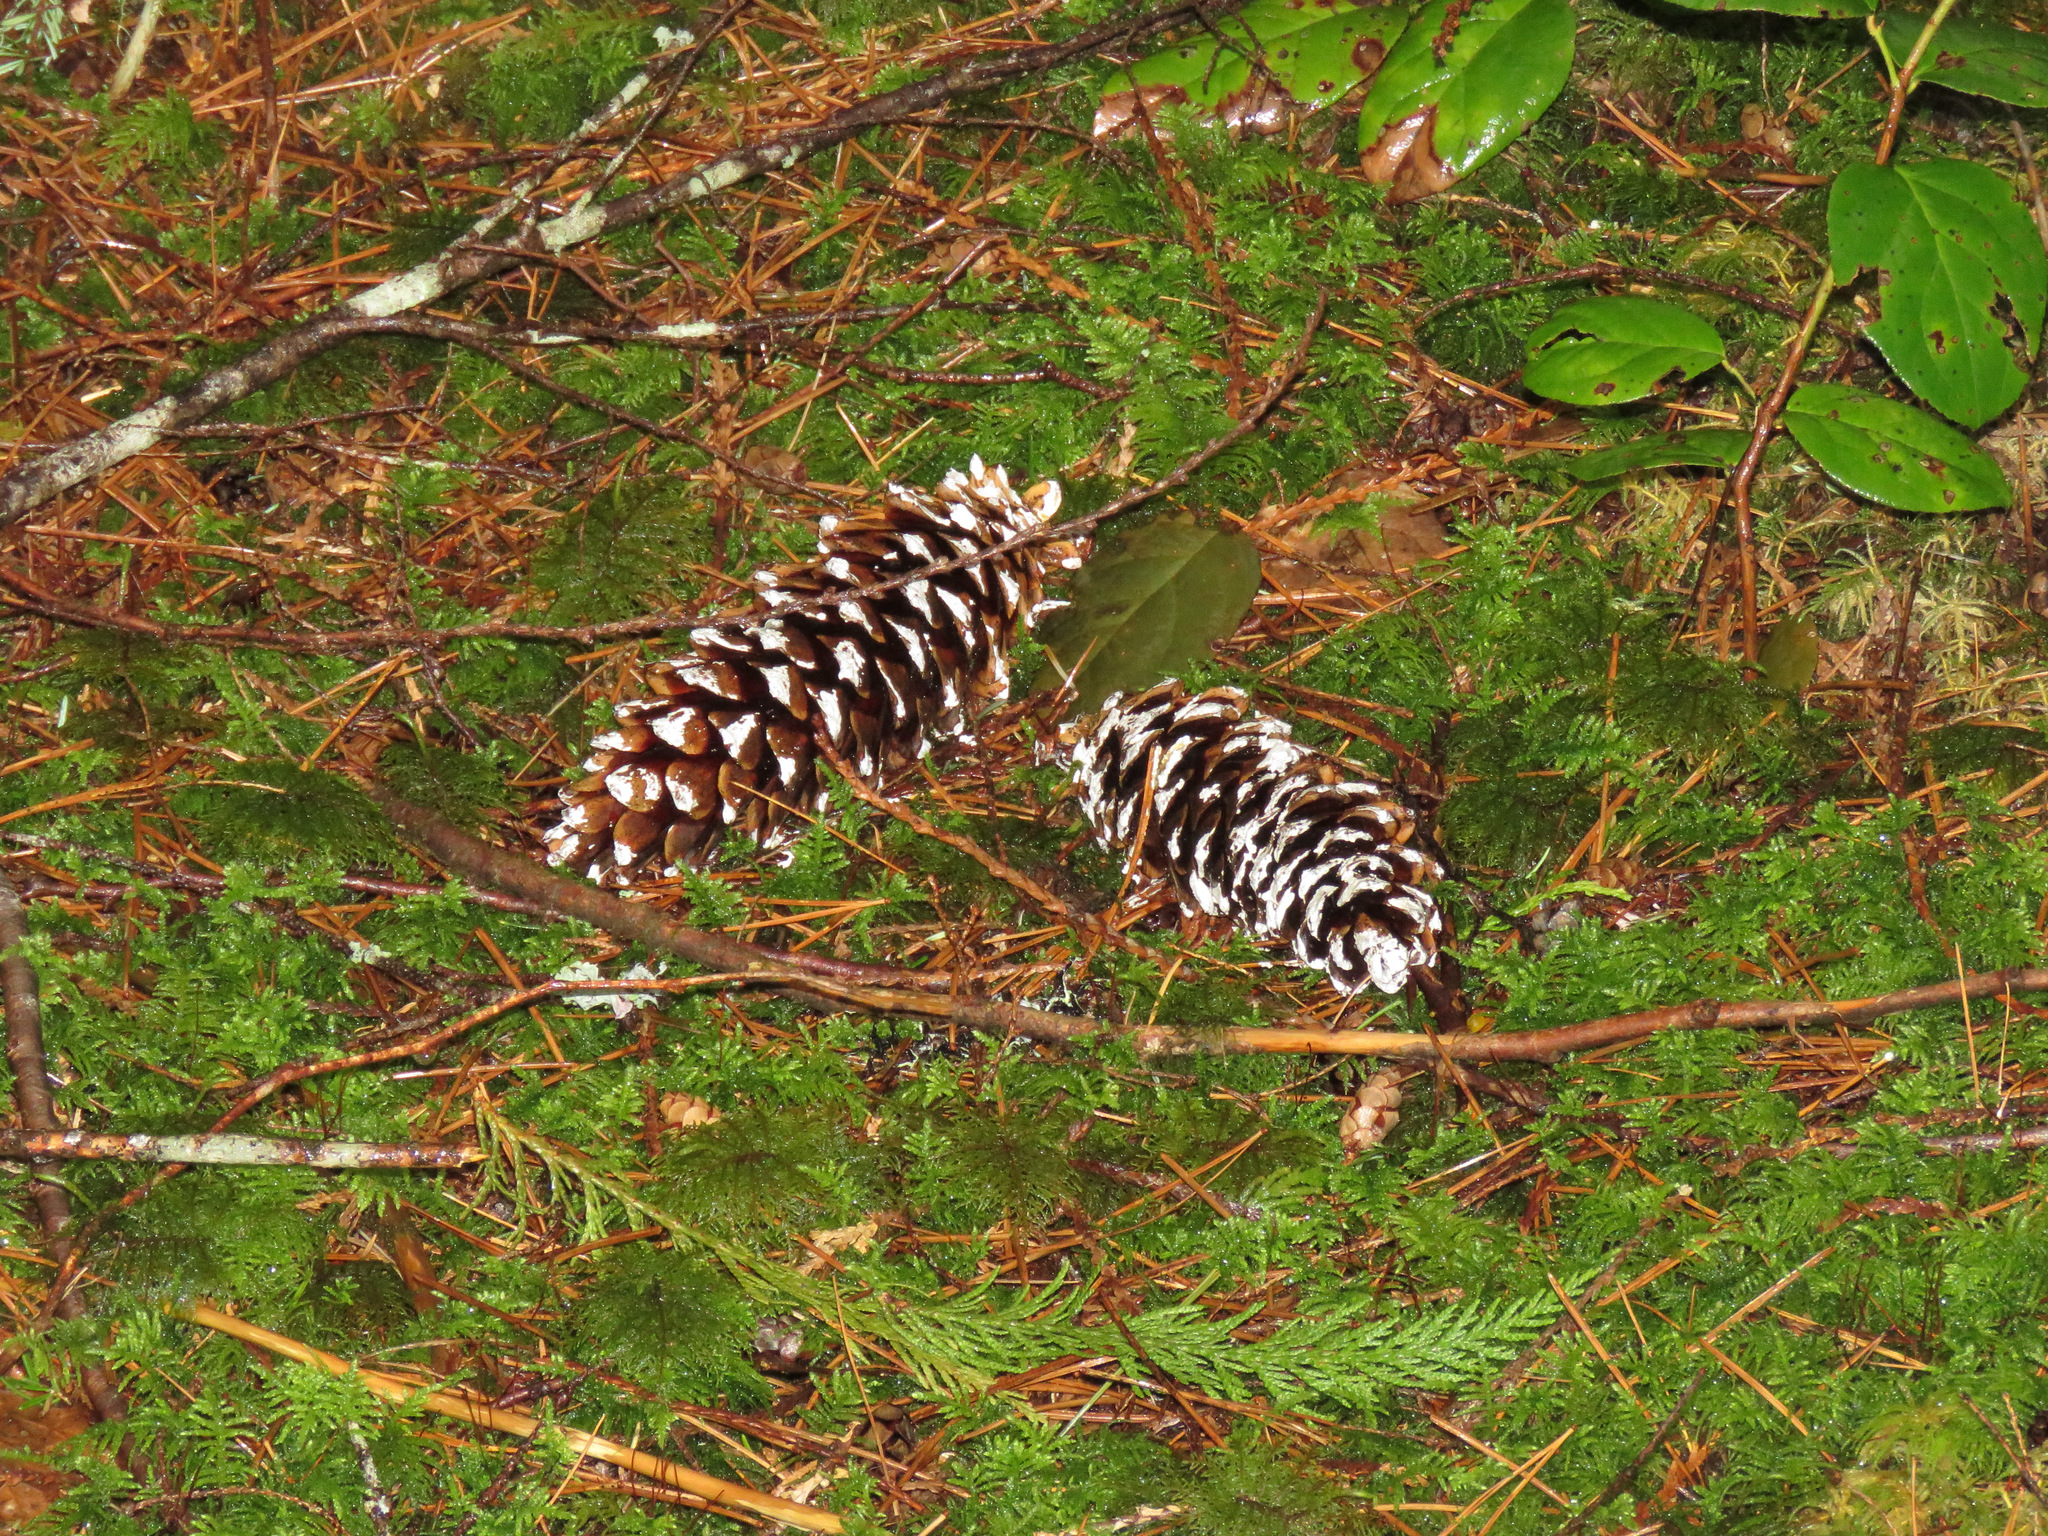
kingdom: Plantae
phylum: Tracheophyta
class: Pinopsida
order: Pinales
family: Pinaceae
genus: Pinus
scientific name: Pinus monticola
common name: Western white pine
